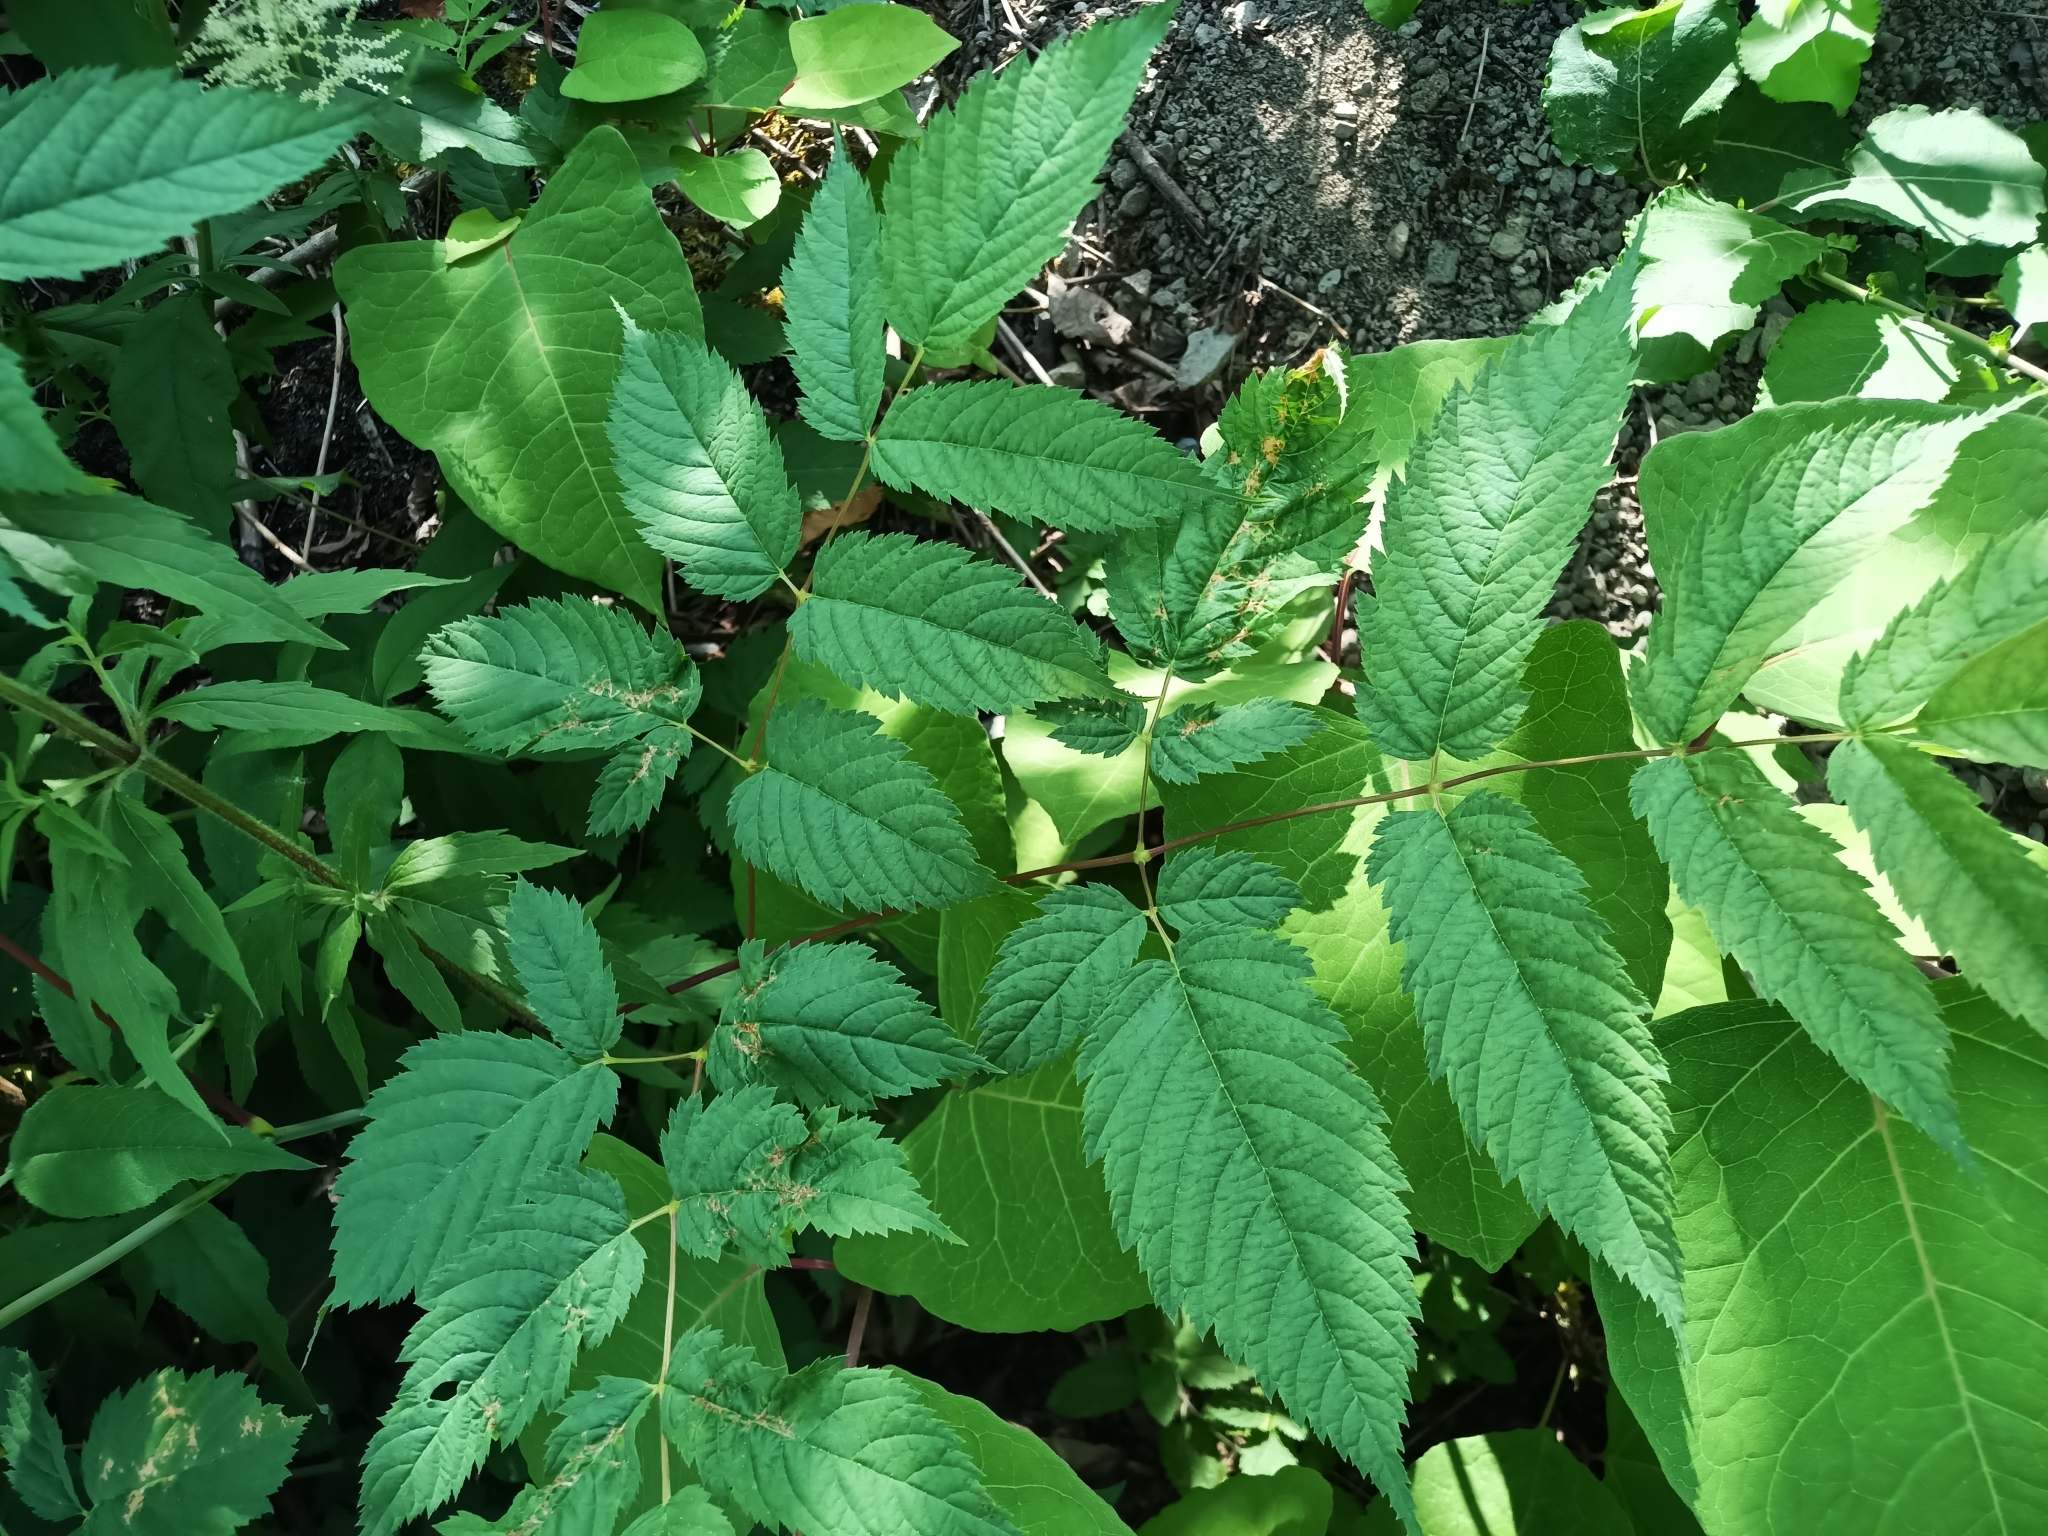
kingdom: Plantae
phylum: Tracheophyta
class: Magnoliopsida
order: Rosales
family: Rosaceae
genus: Aruncus
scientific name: Aruncus dioicus
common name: Buck's-beard
